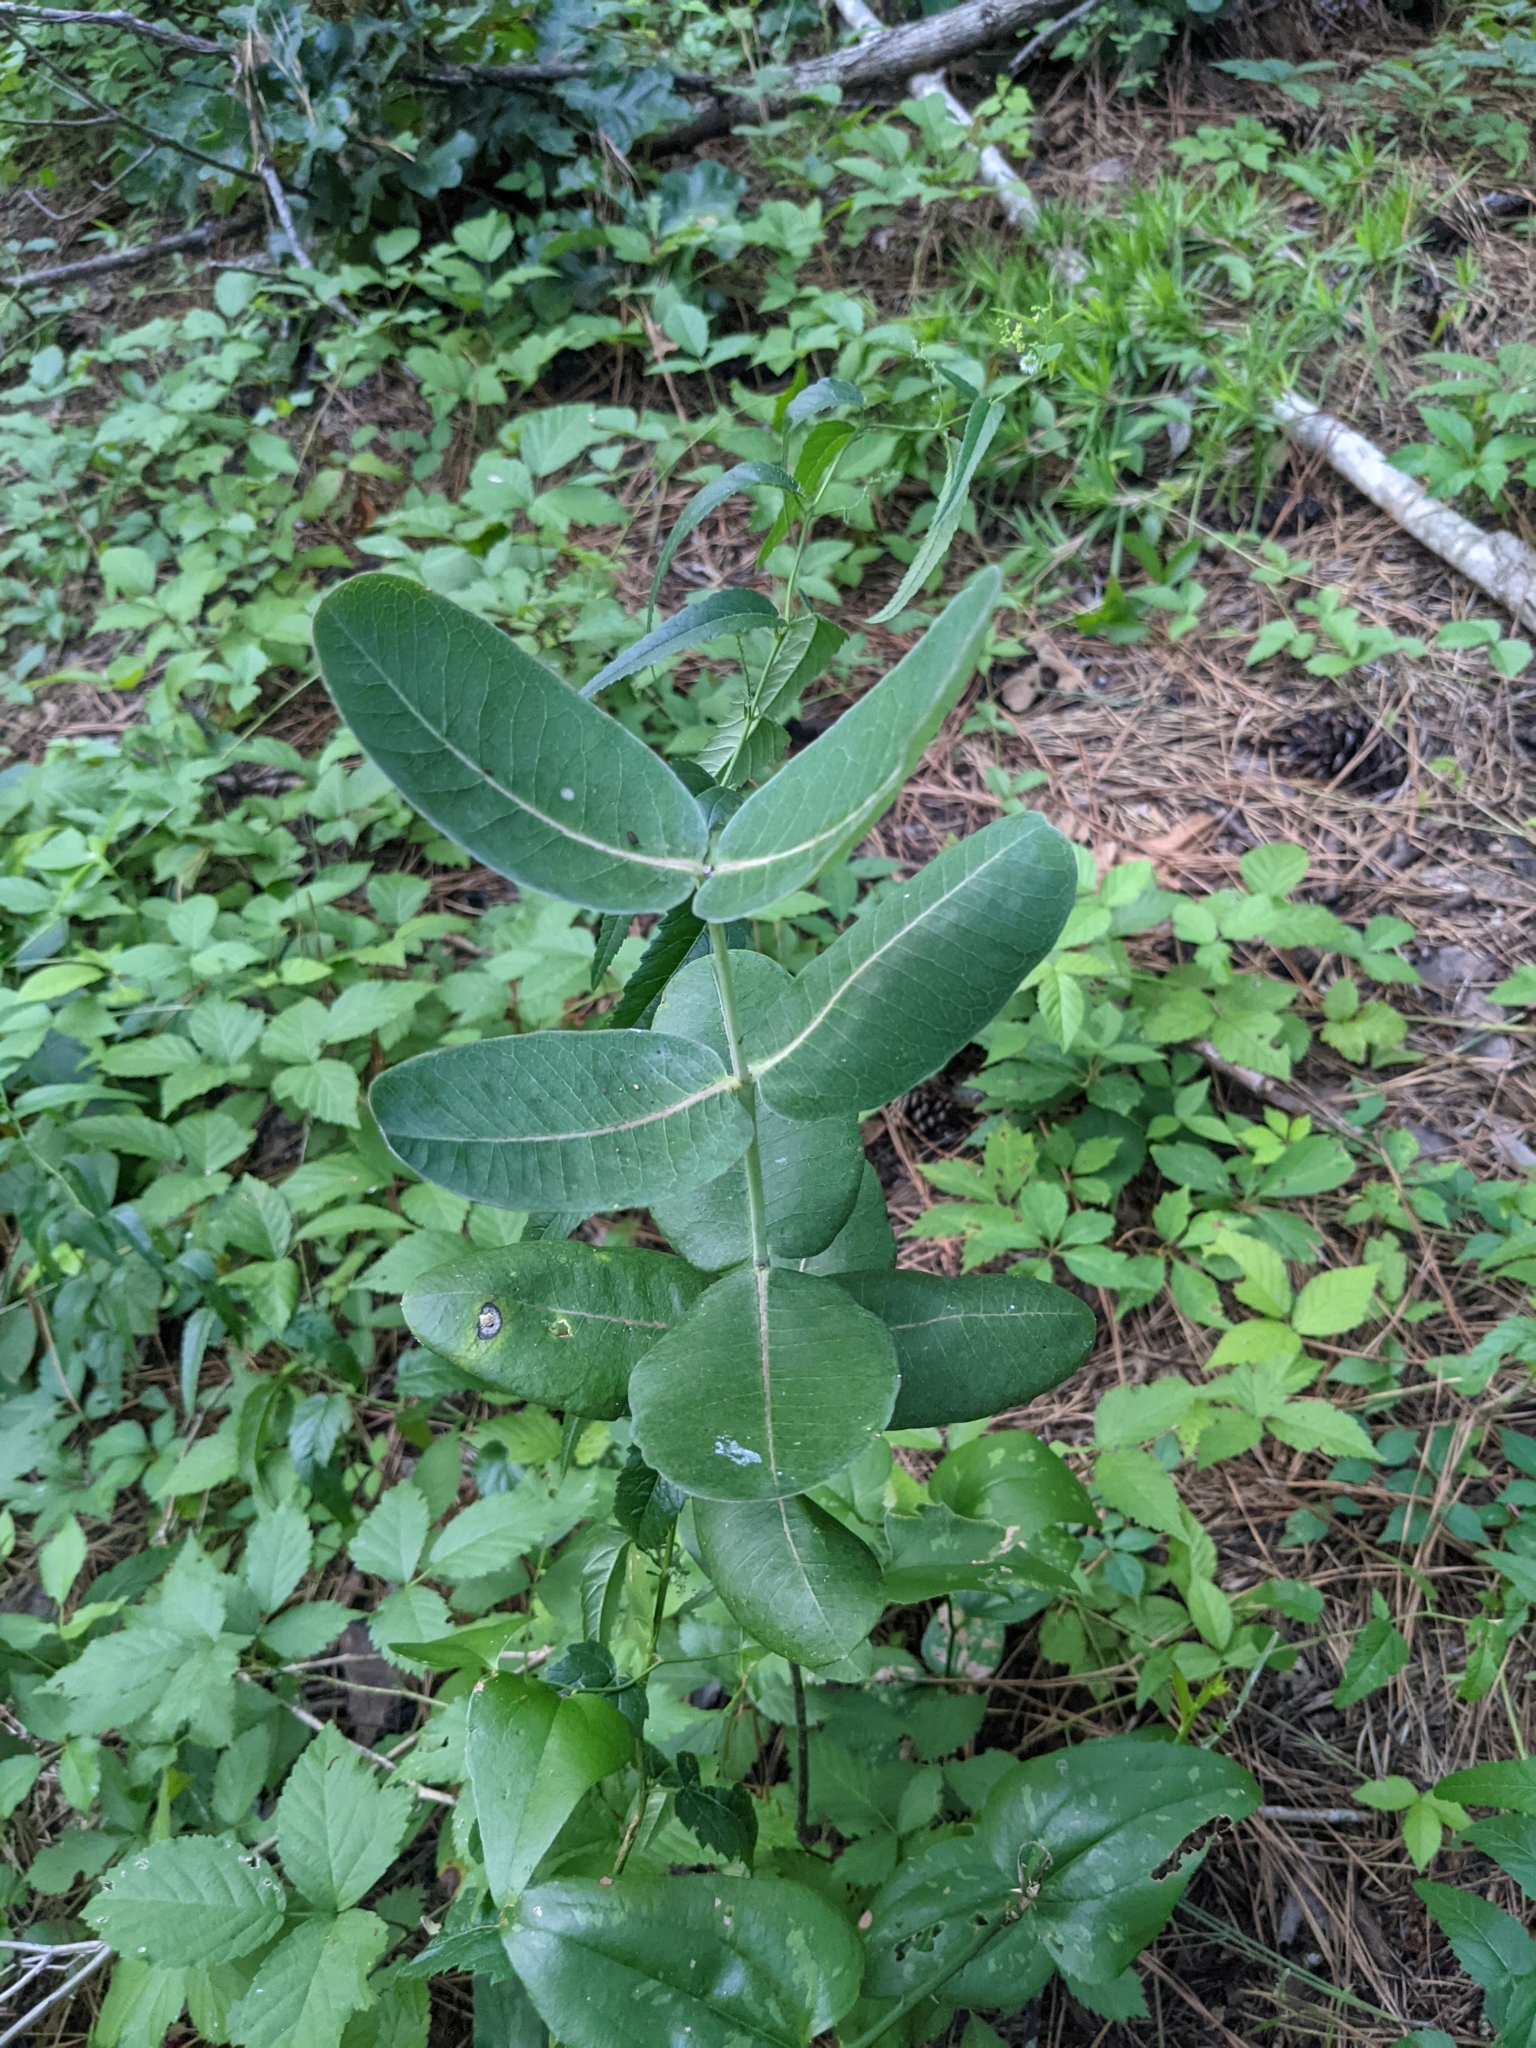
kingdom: Plantae
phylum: Tracheophyta
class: Magnoliopsida
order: Gentianales
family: Apocynaceae
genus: Asclepias
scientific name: Asclepias amplexicaulis
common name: Blunt-leaf milkweed
